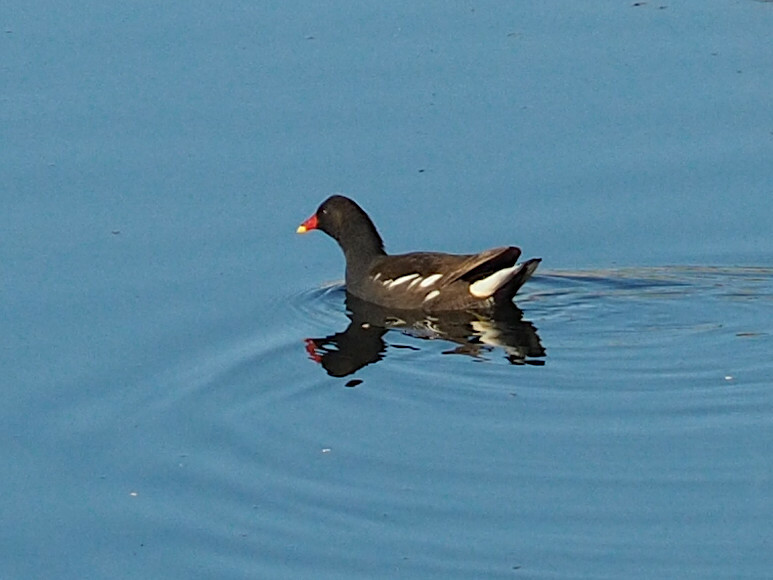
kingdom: Animalia
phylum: Chordata
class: Aves
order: Gruiformes
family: Rallidae
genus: Gallinula
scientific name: Gallinula chloropus
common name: Common moorhen
